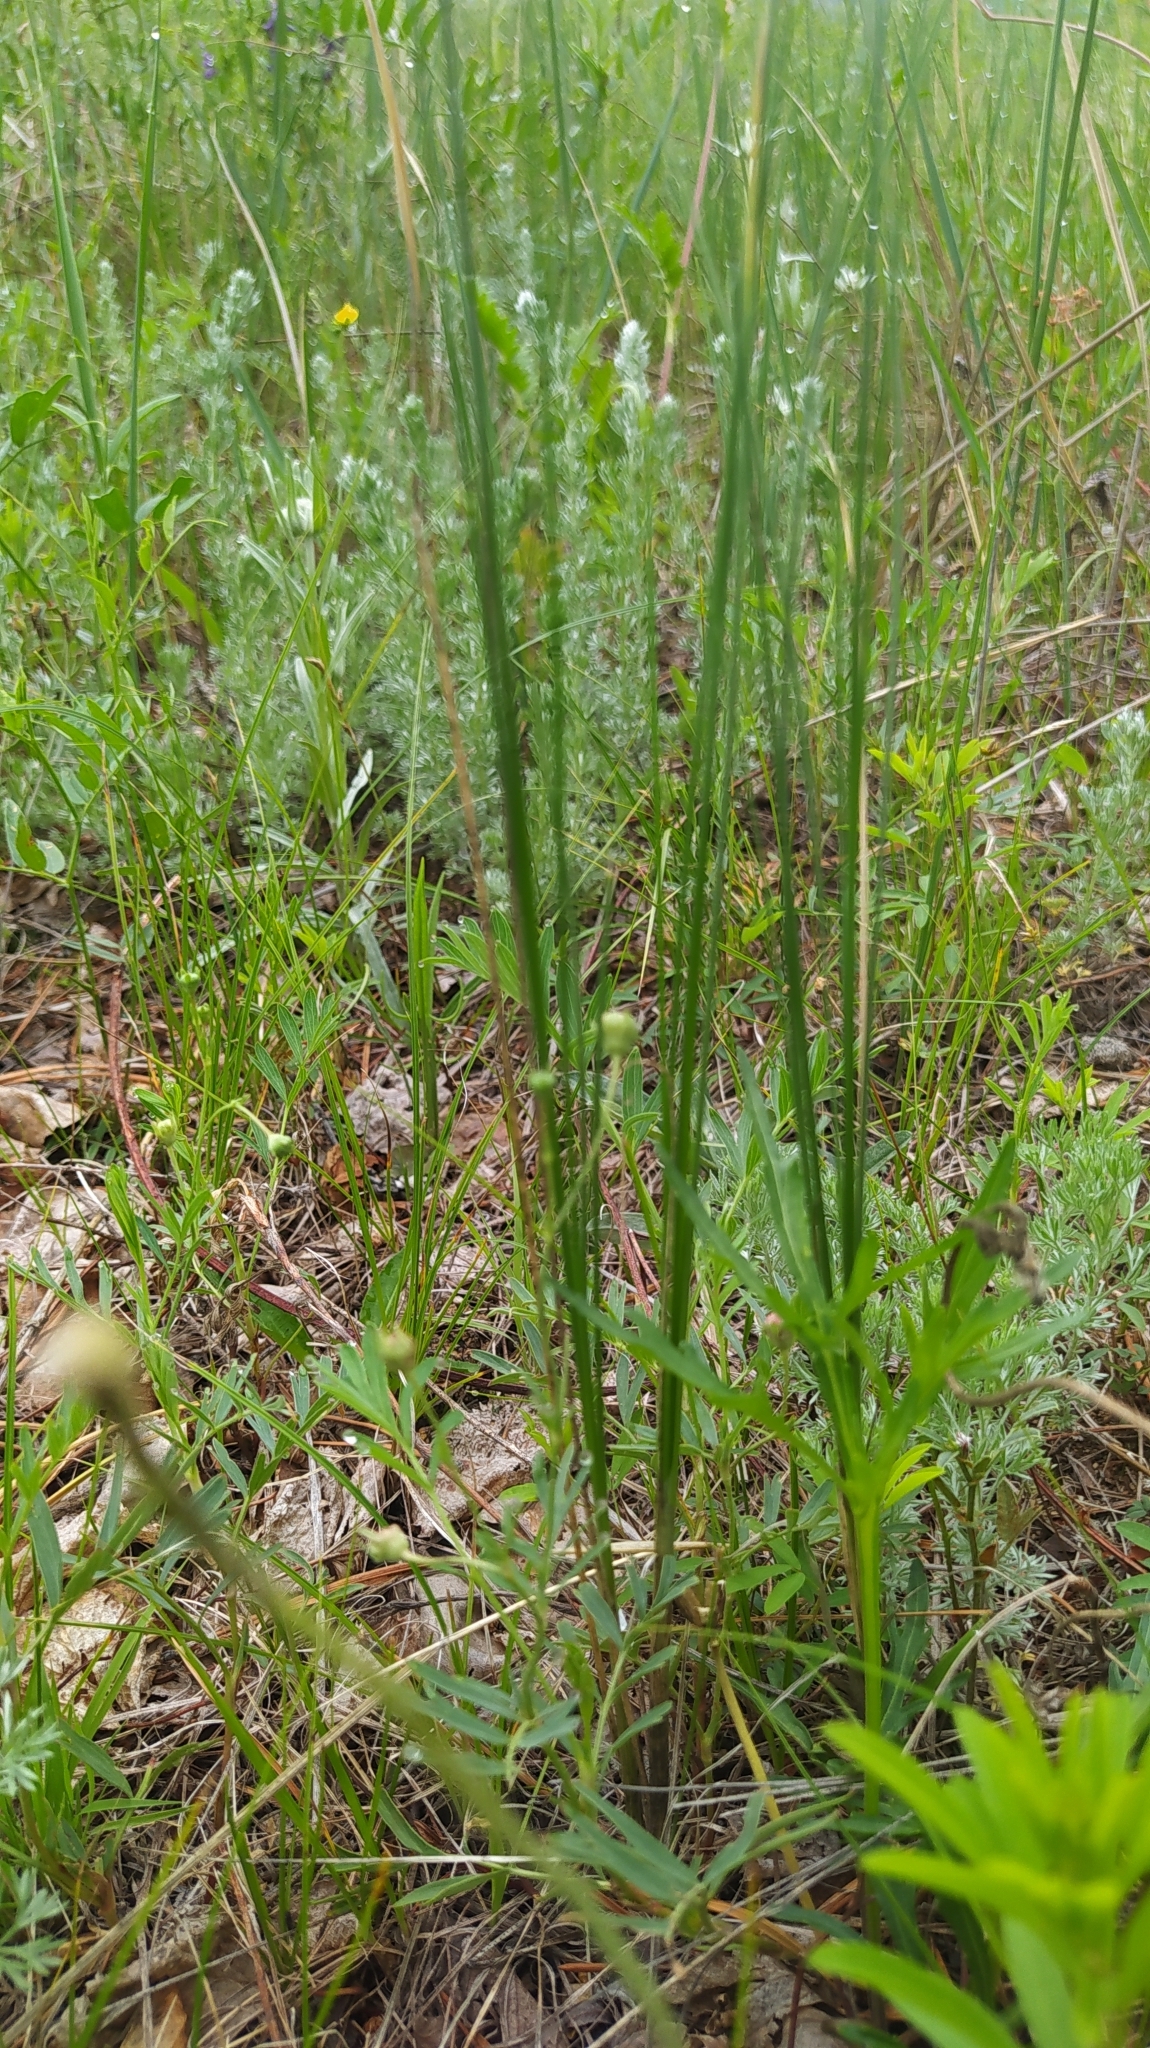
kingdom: Plantae
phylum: Tracheophyta
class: Liliopsida
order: Asparagales
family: Amaryllidaceae
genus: Allium
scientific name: Allium anisopodium
